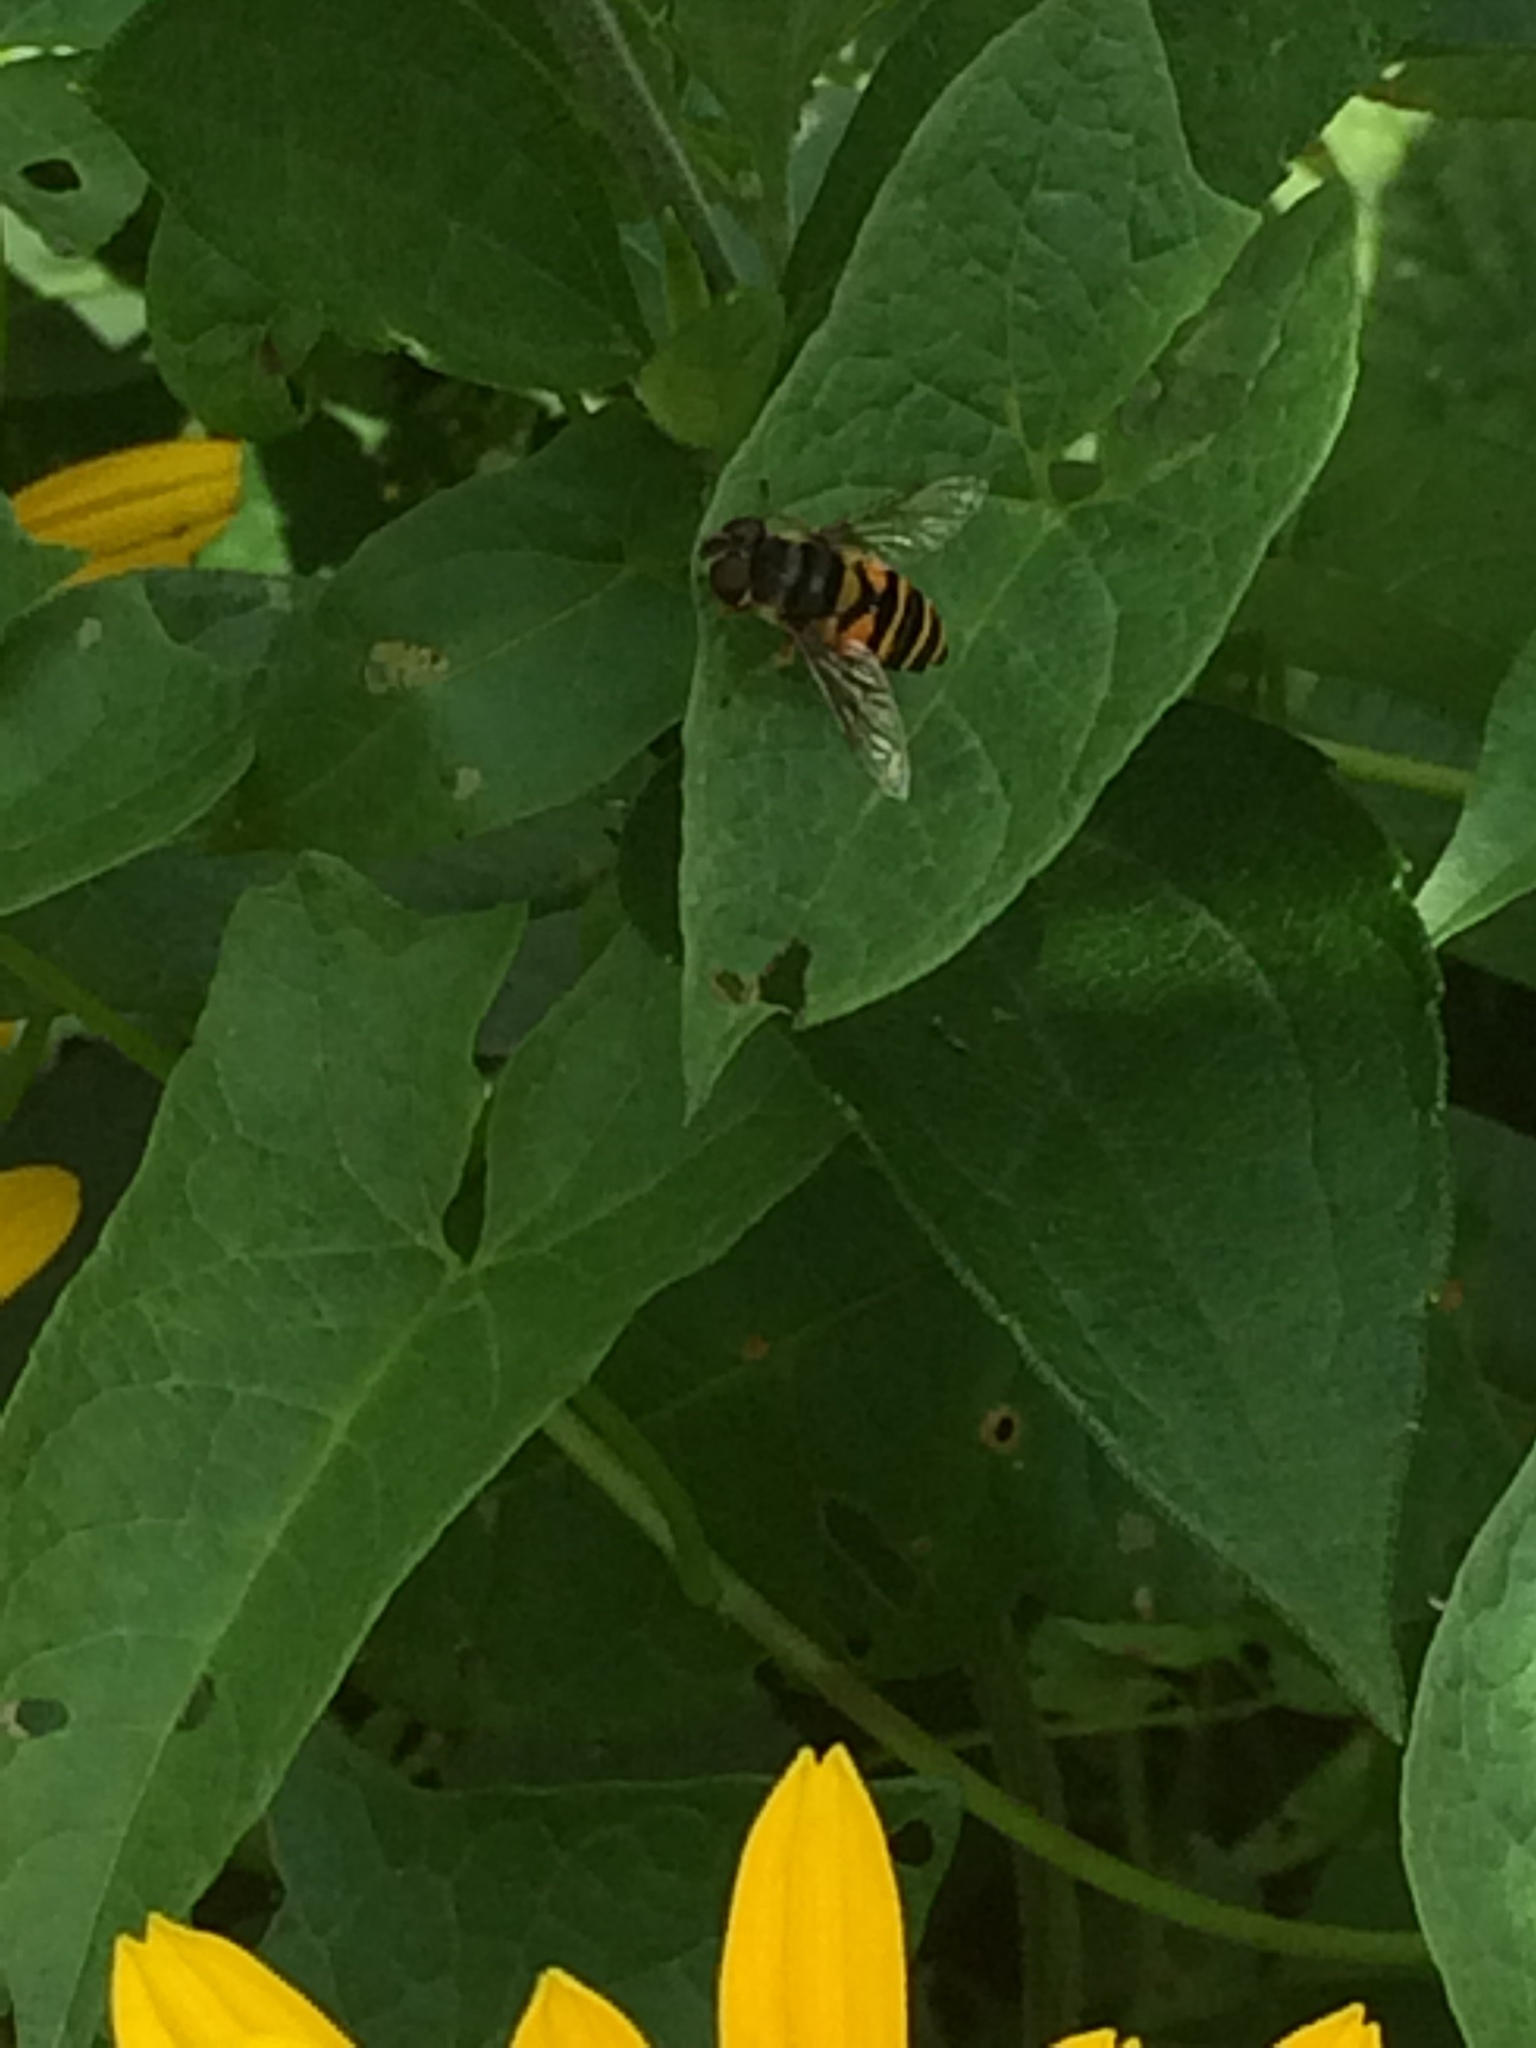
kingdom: Animalia
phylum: Arthropoda
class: Insecta
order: Diptera
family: Syrphidae
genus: Eristalis
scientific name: Eristalis transversa
